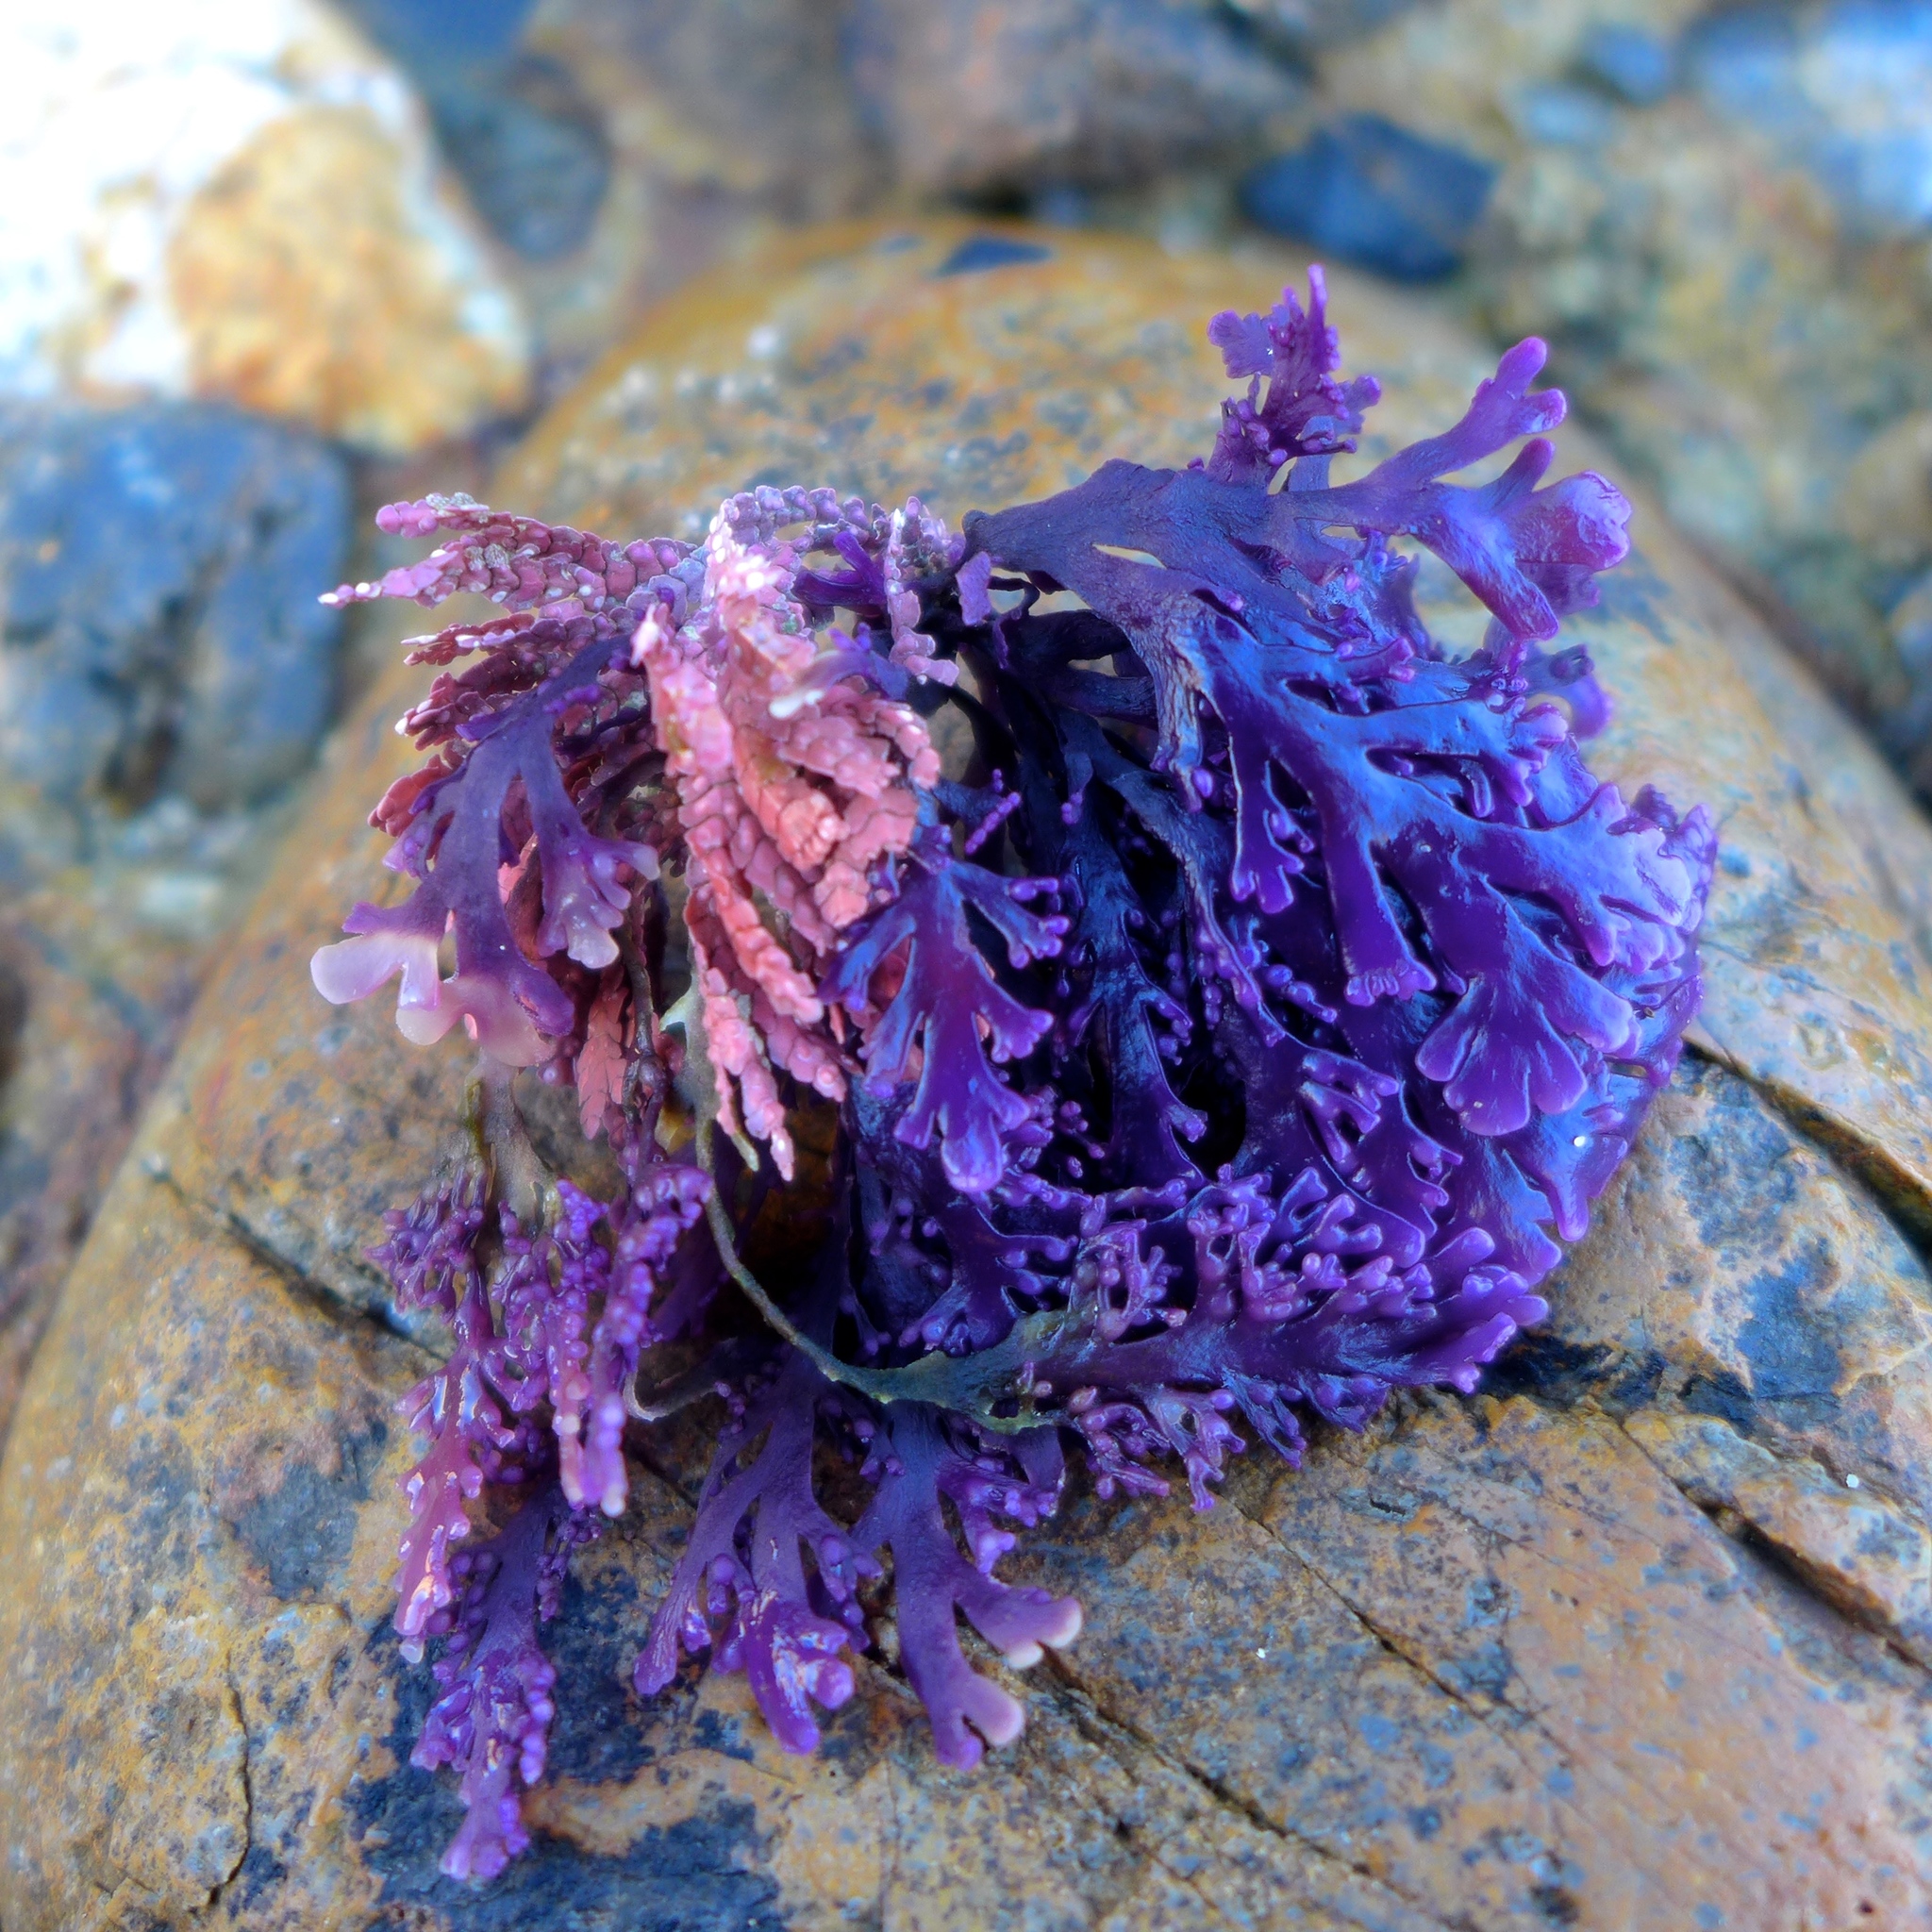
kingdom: Plantae
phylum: Rhodophyta
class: Florideophyceae
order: Ceramiales
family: Rhodomelaceae
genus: Osmundea
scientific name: Osmundea spectabilis
